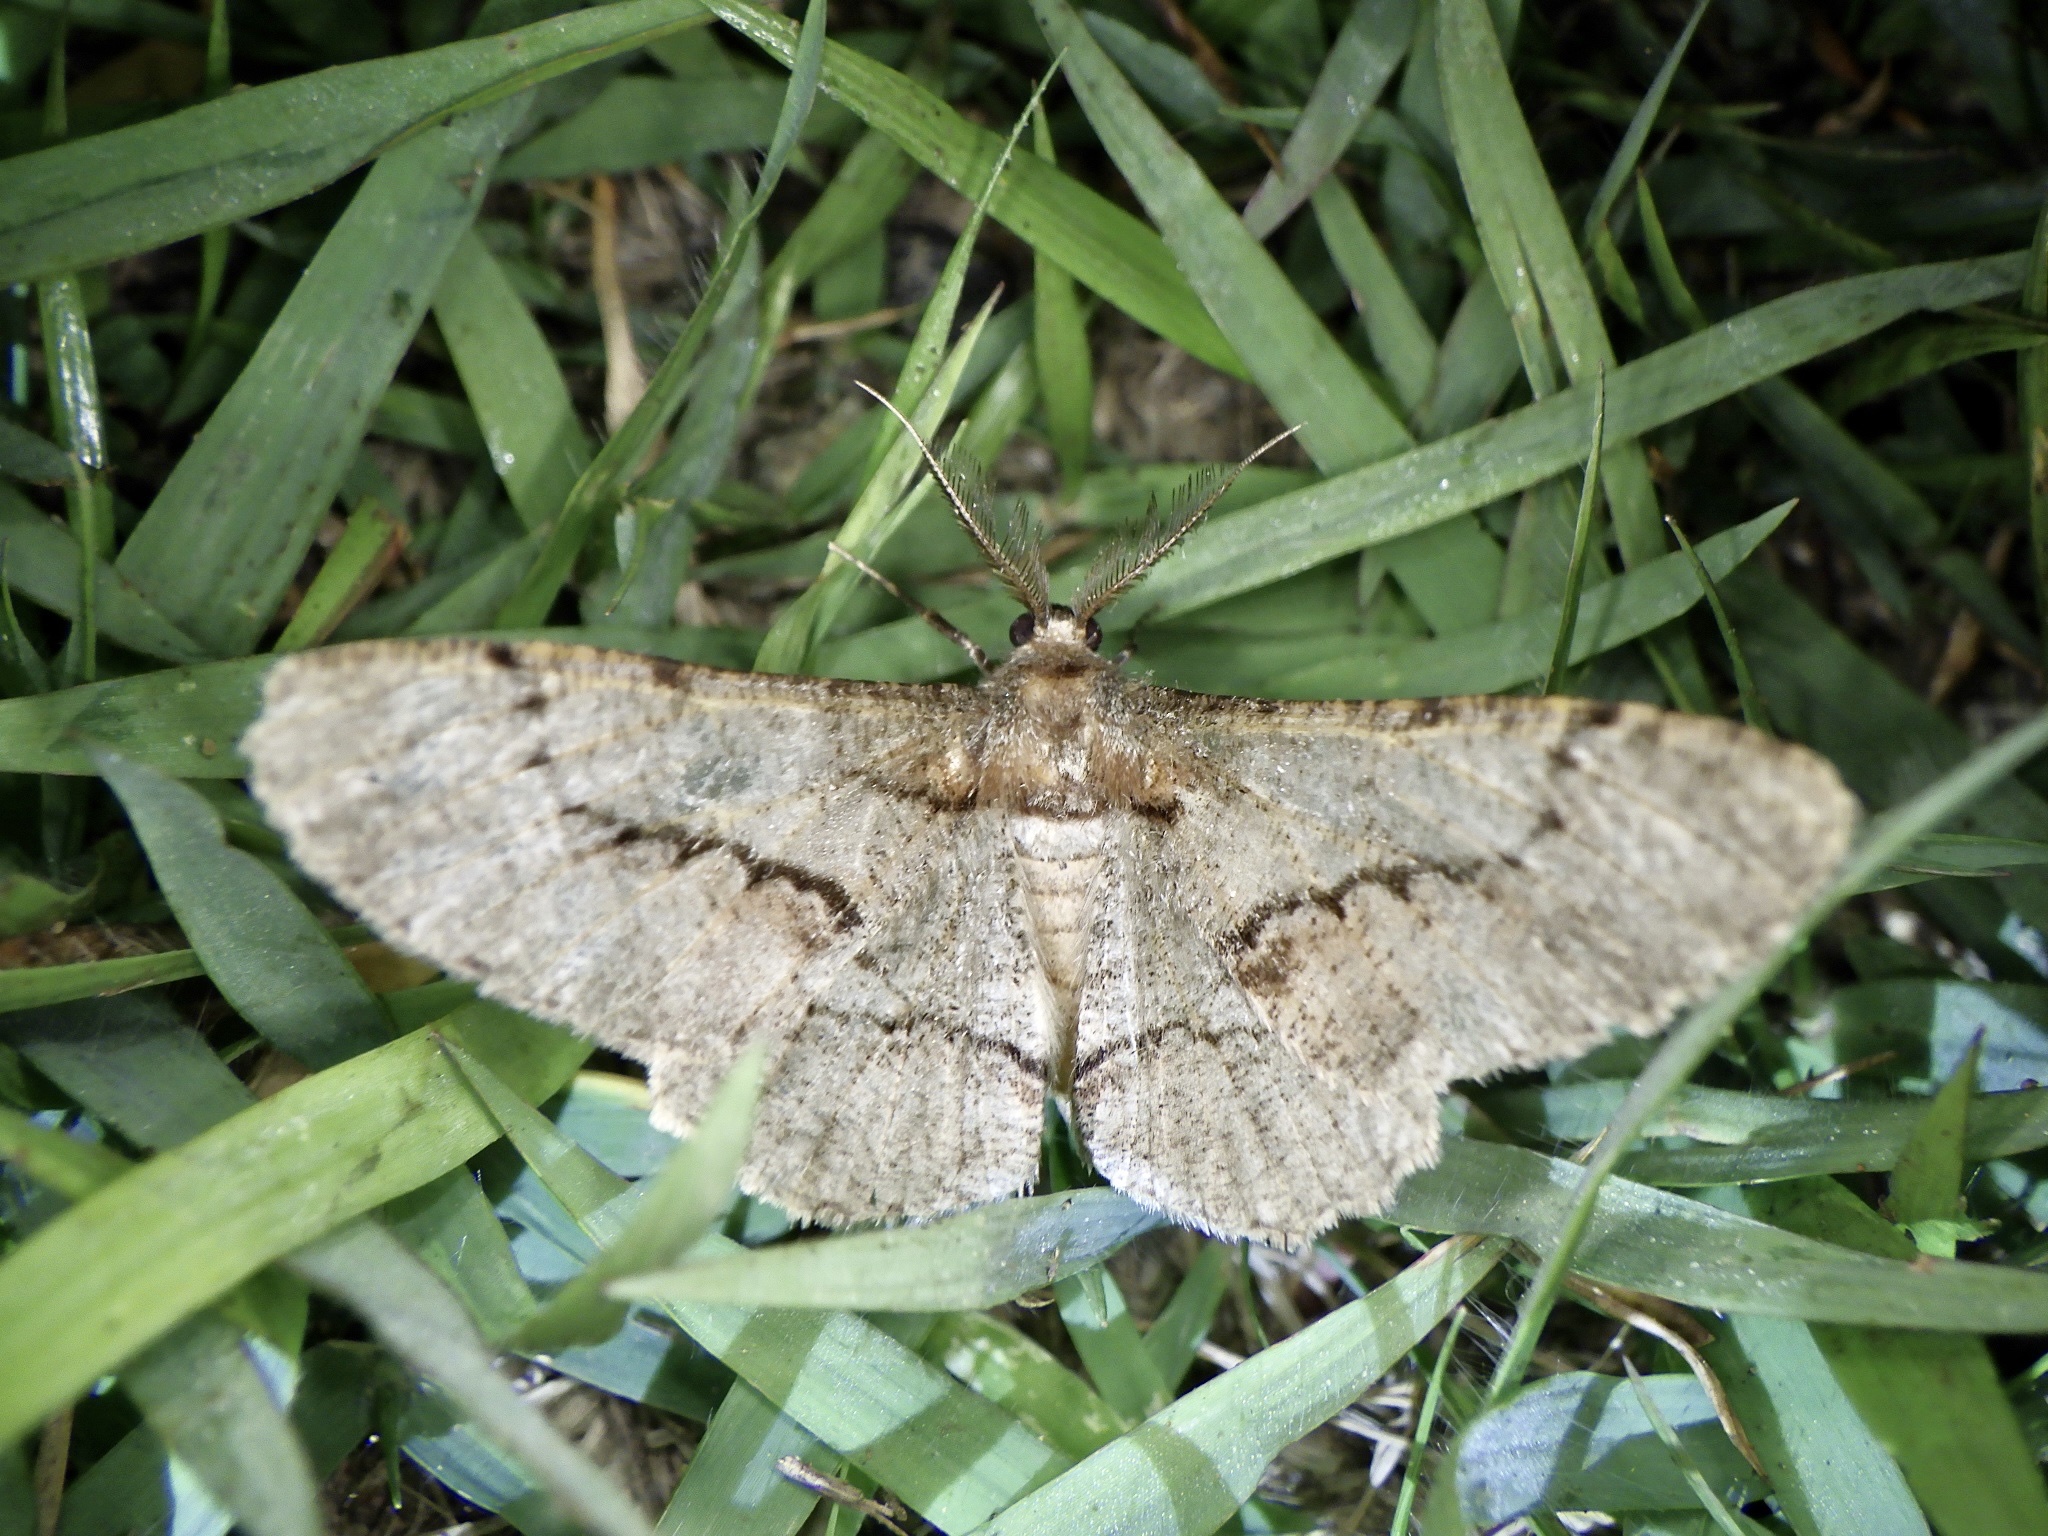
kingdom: Animalia
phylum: Arthropoda
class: Insecta
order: Lepidoptera
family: Geometridae
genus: Phthonosema
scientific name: Phthonosema tendinosaria
